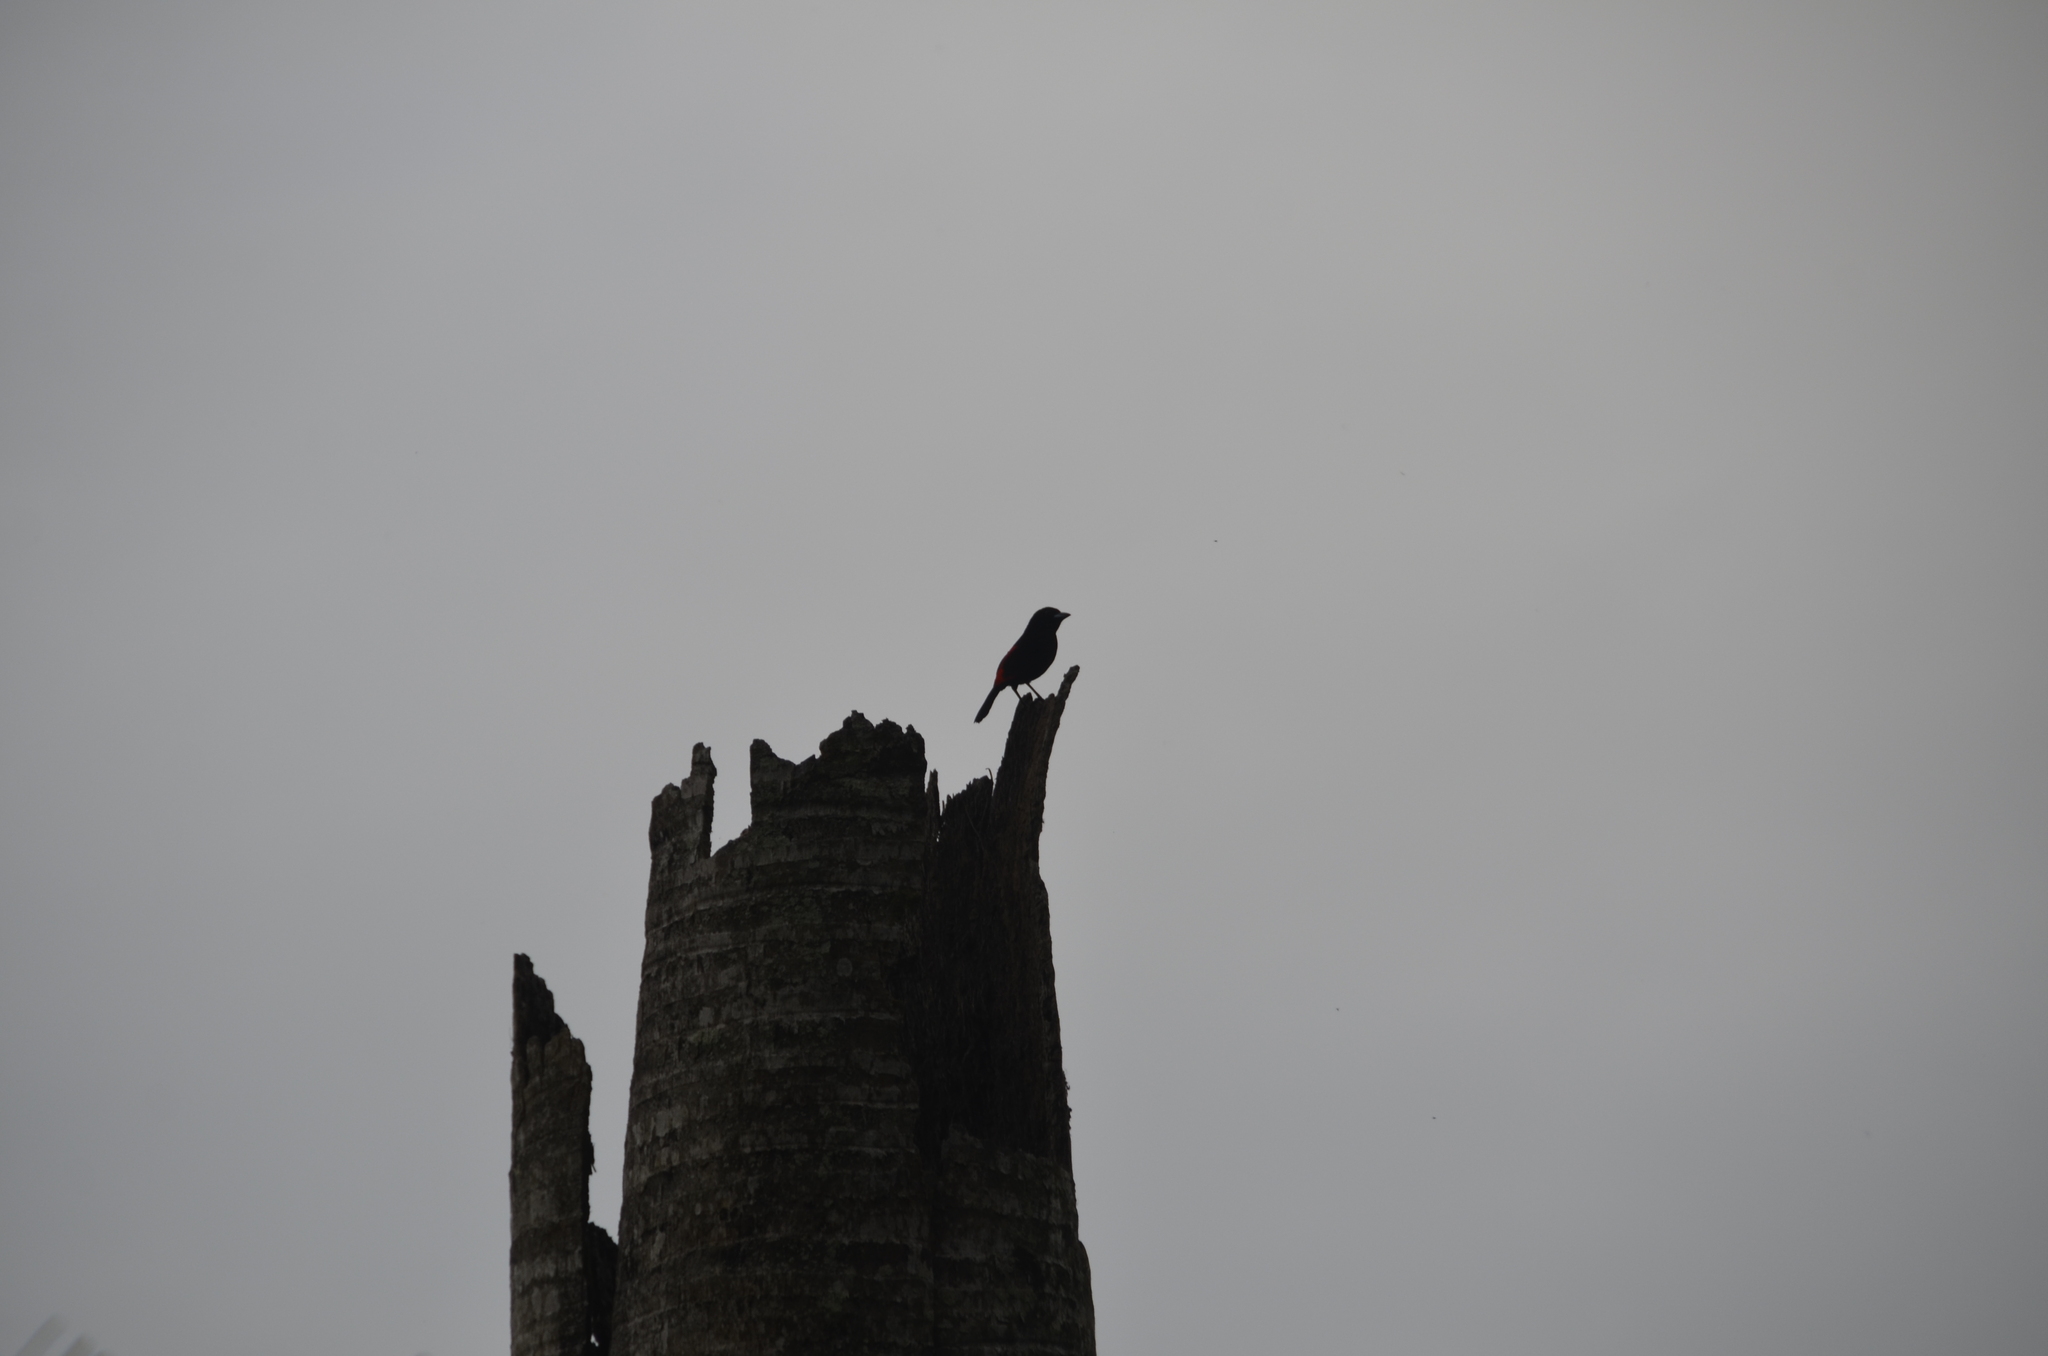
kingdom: Animalia
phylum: Chordata
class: Aves
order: Passeriformes
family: Thraupidae
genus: Ramphocelus
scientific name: Ramphocelus passerinii
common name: Passerini's tanager
